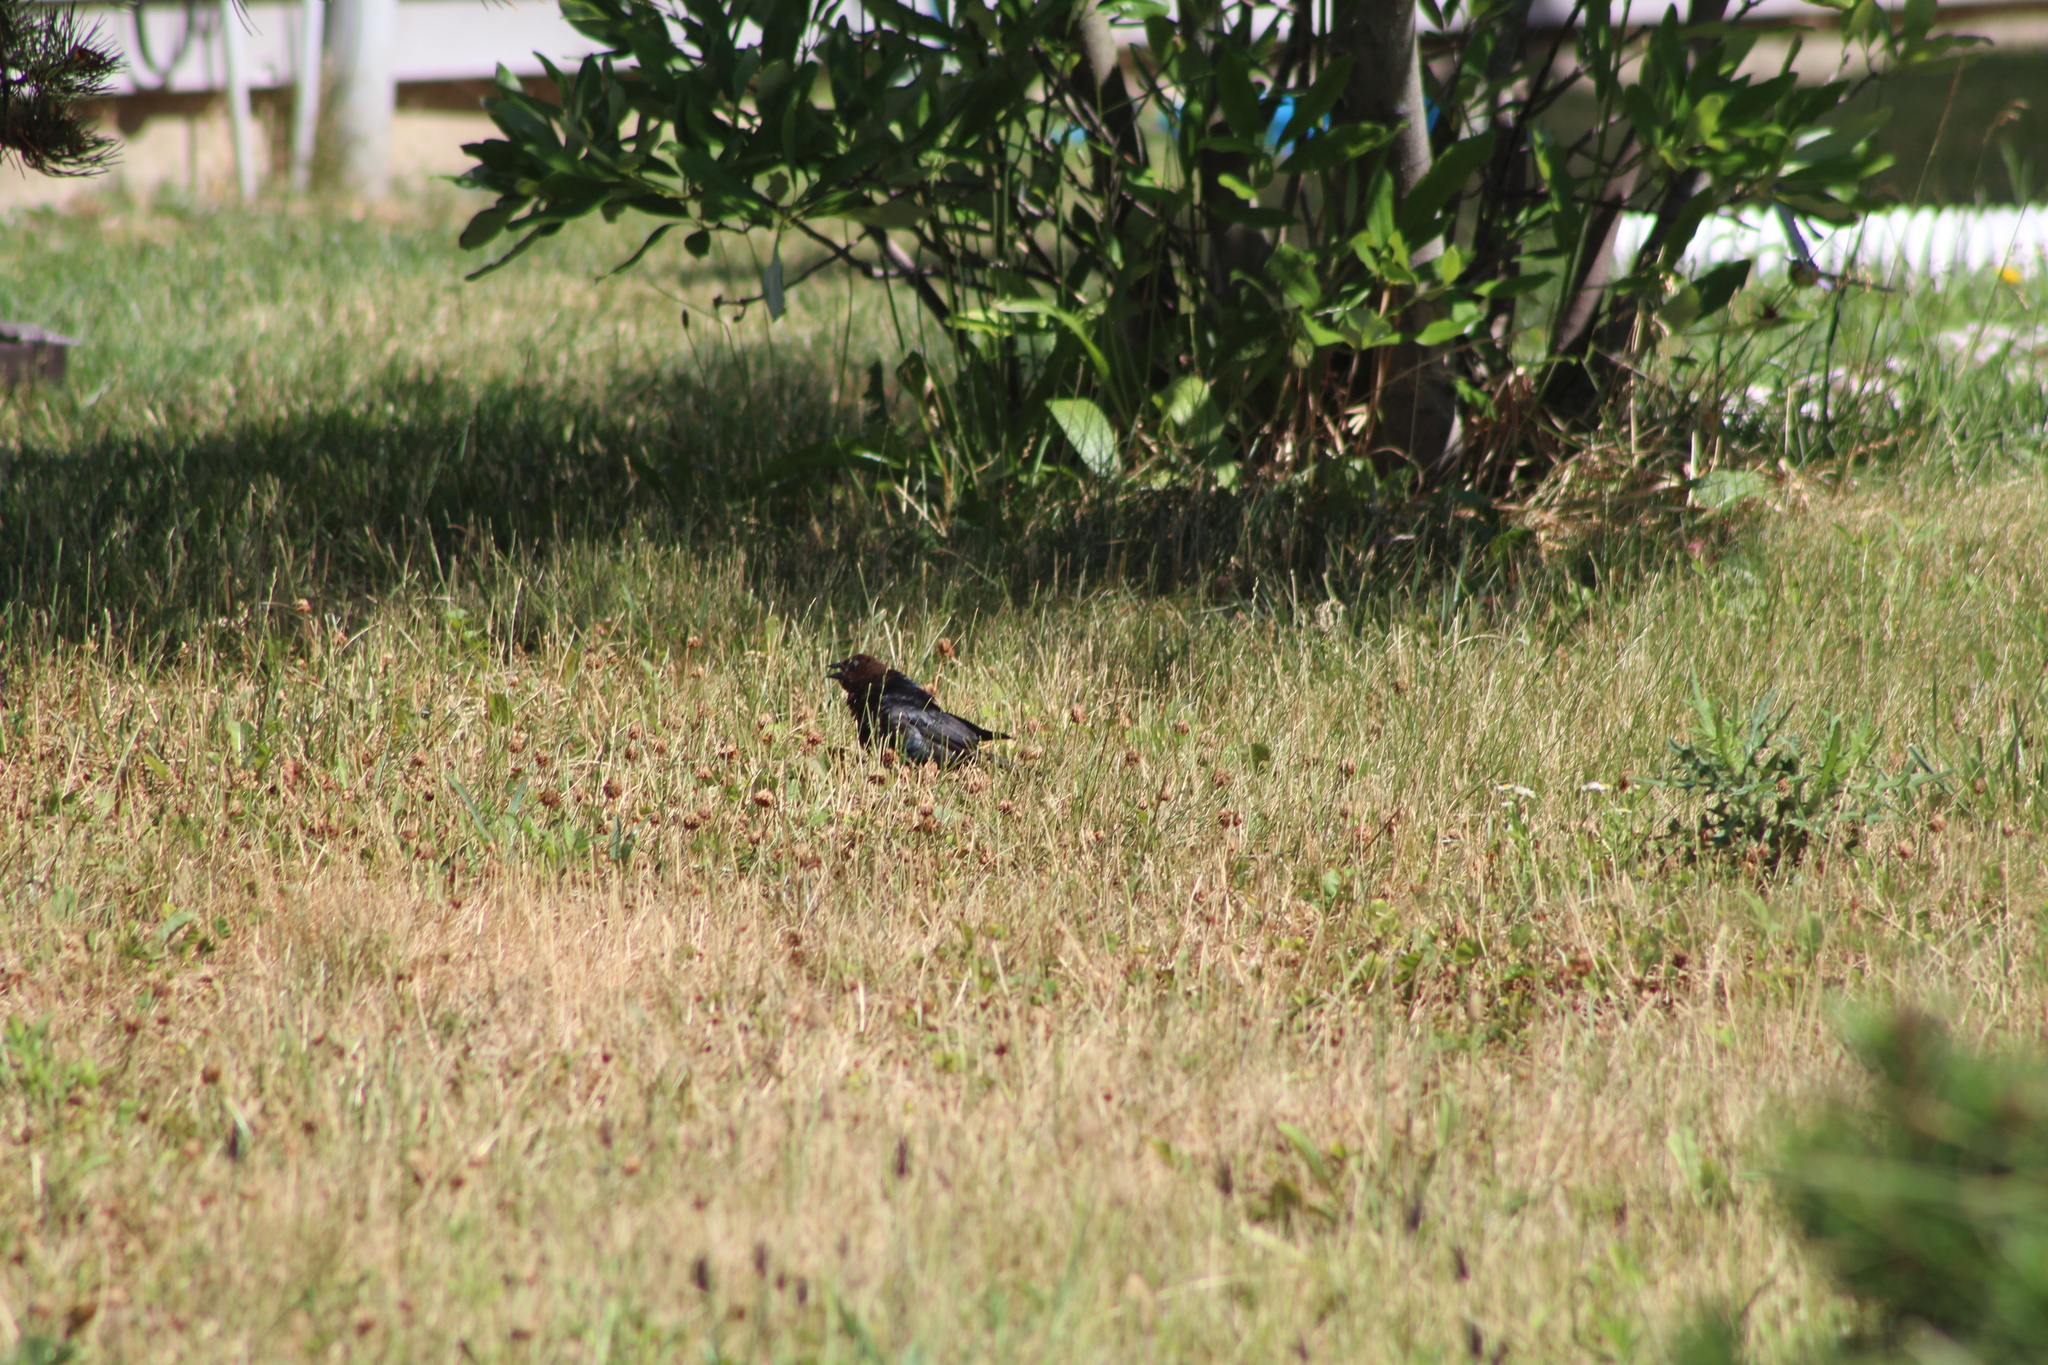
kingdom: Animalia
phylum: Chordata
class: Aves
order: Passeriformes
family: Icteridae
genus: Molothrus
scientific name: Molothrus ater
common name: Brown-headed cowbird
